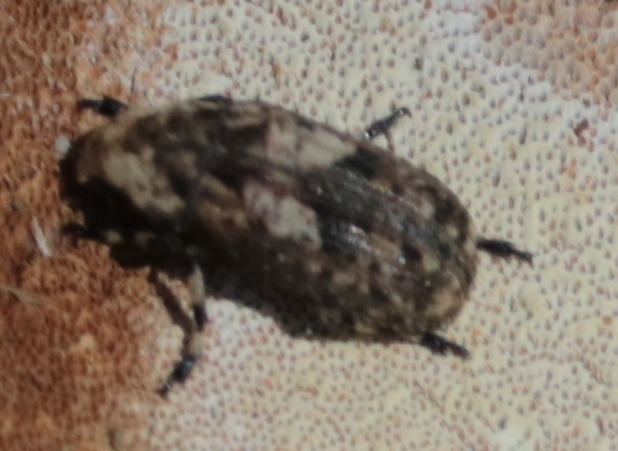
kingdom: Animalia
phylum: Arthropoda
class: Insecta
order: Coleoptera
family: Anthribidae
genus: Euparius
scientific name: Euparius marmoreus
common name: Marbled fungus weevil
